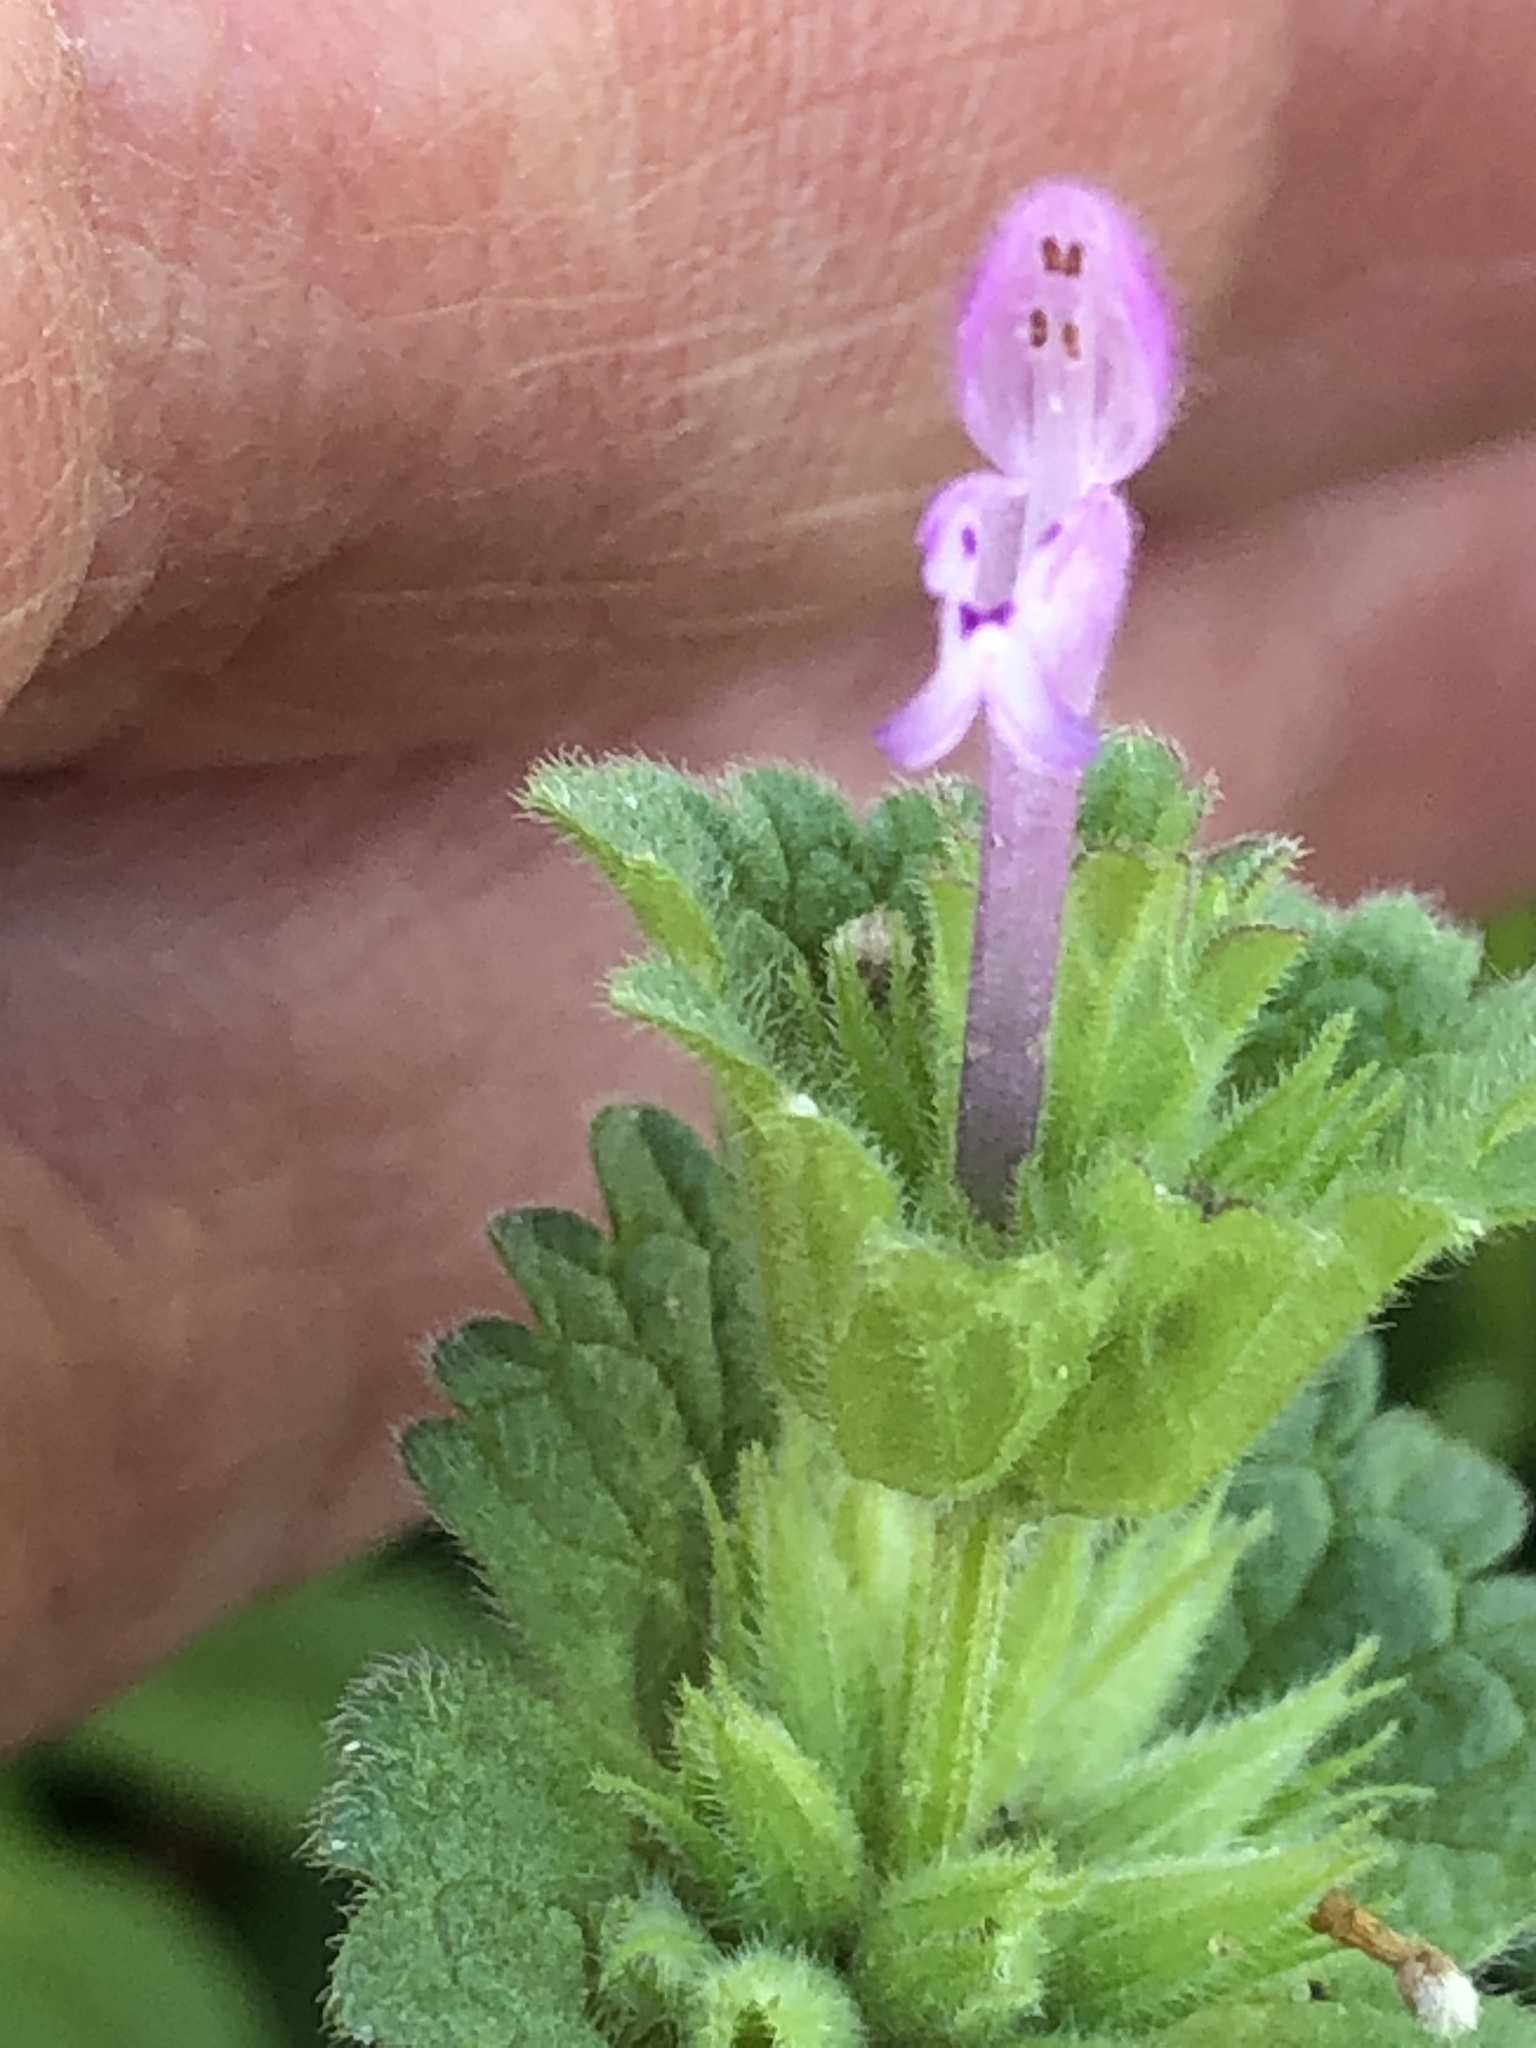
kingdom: Plantae
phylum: Tracheophyta
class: Magnoliopsida
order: Lamiales
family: Lamiaceae
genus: Lamium
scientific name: Lamium amplexicaule
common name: Henbit dead-nettle
